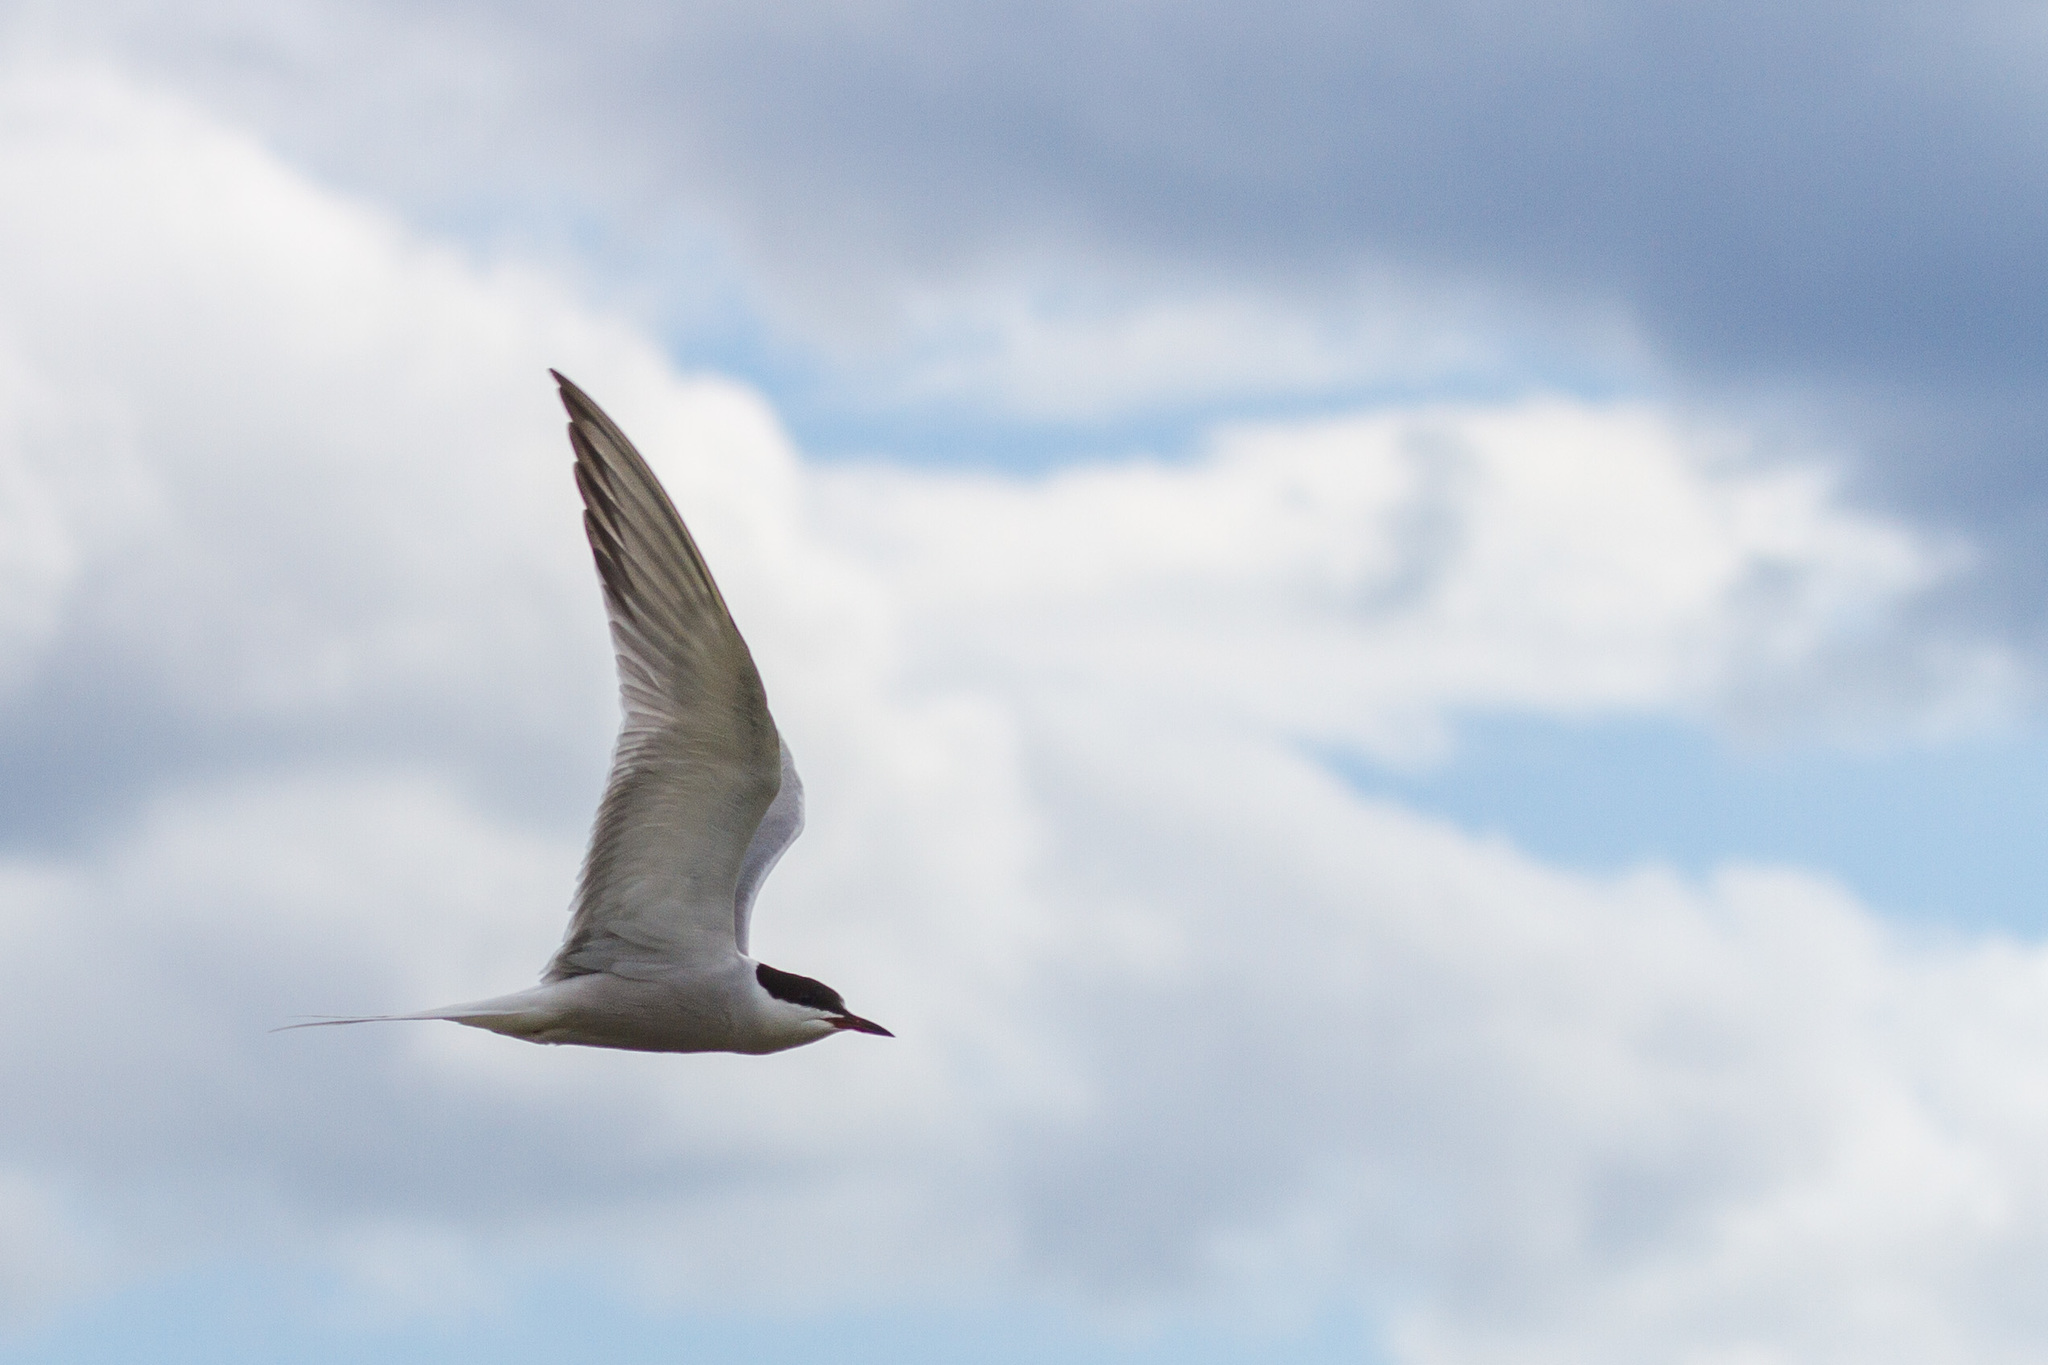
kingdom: Animalia
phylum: Chordata
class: Aves
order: Charadriiformes
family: Laridae
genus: Sterna
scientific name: Sterna hirundo
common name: Common tern
